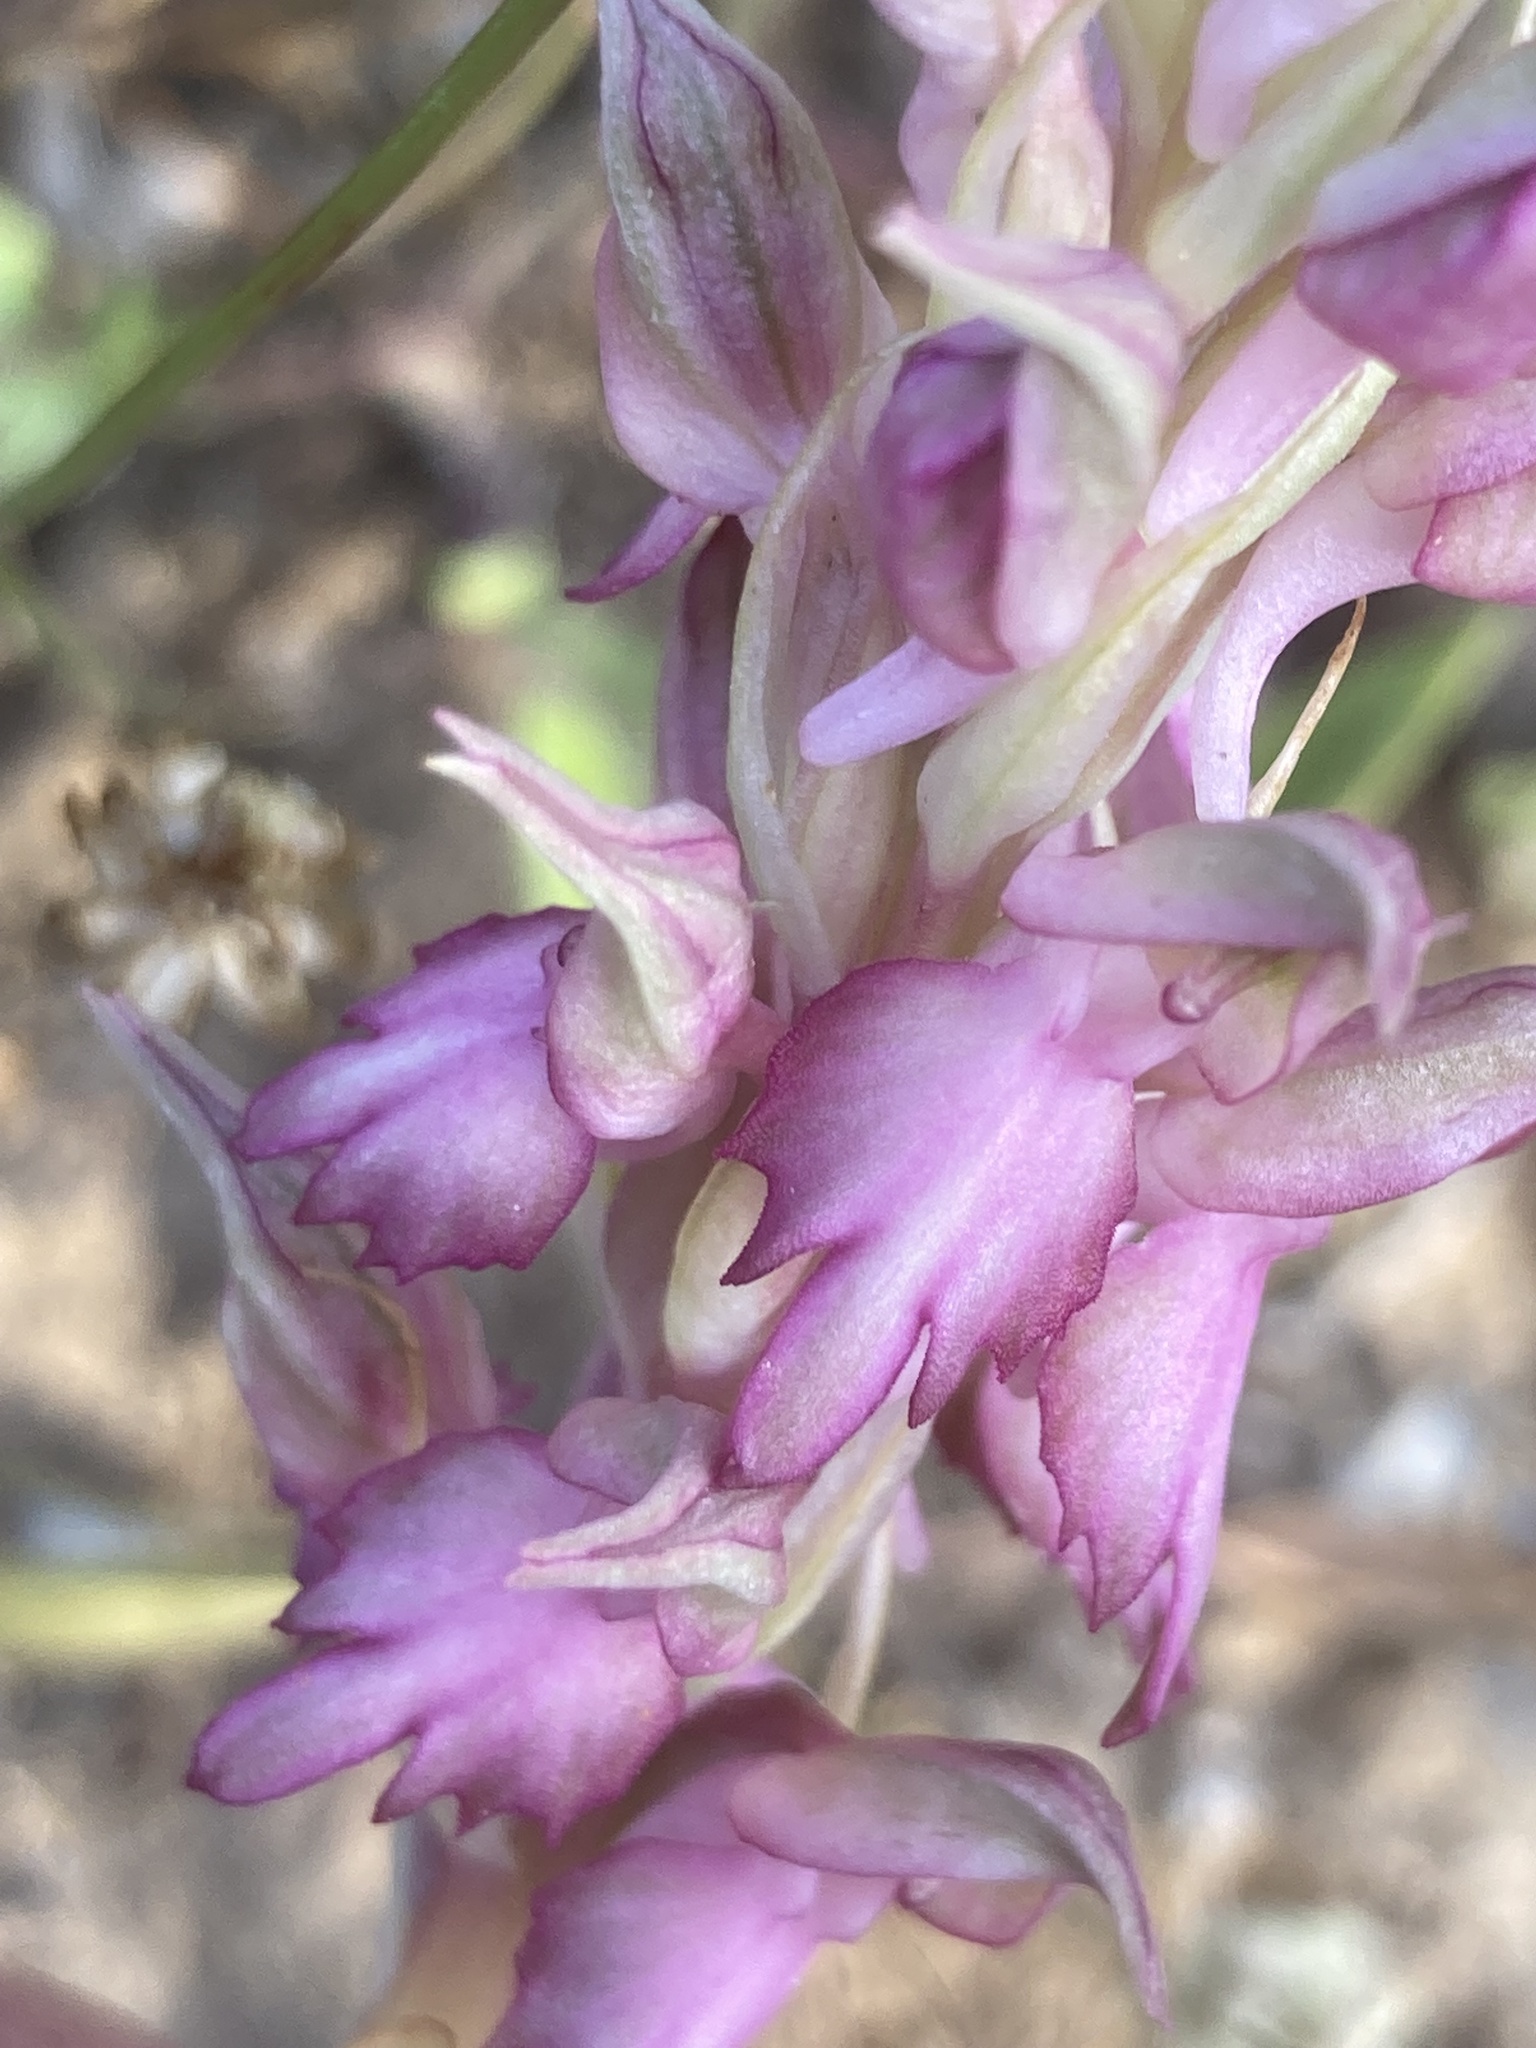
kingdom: Plantae
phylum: Tracheophyta
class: Liliopsida
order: Asparagales
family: Orchidaceae
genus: Anacamptis
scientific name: Anacamptis sancta
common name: Holy orchid
